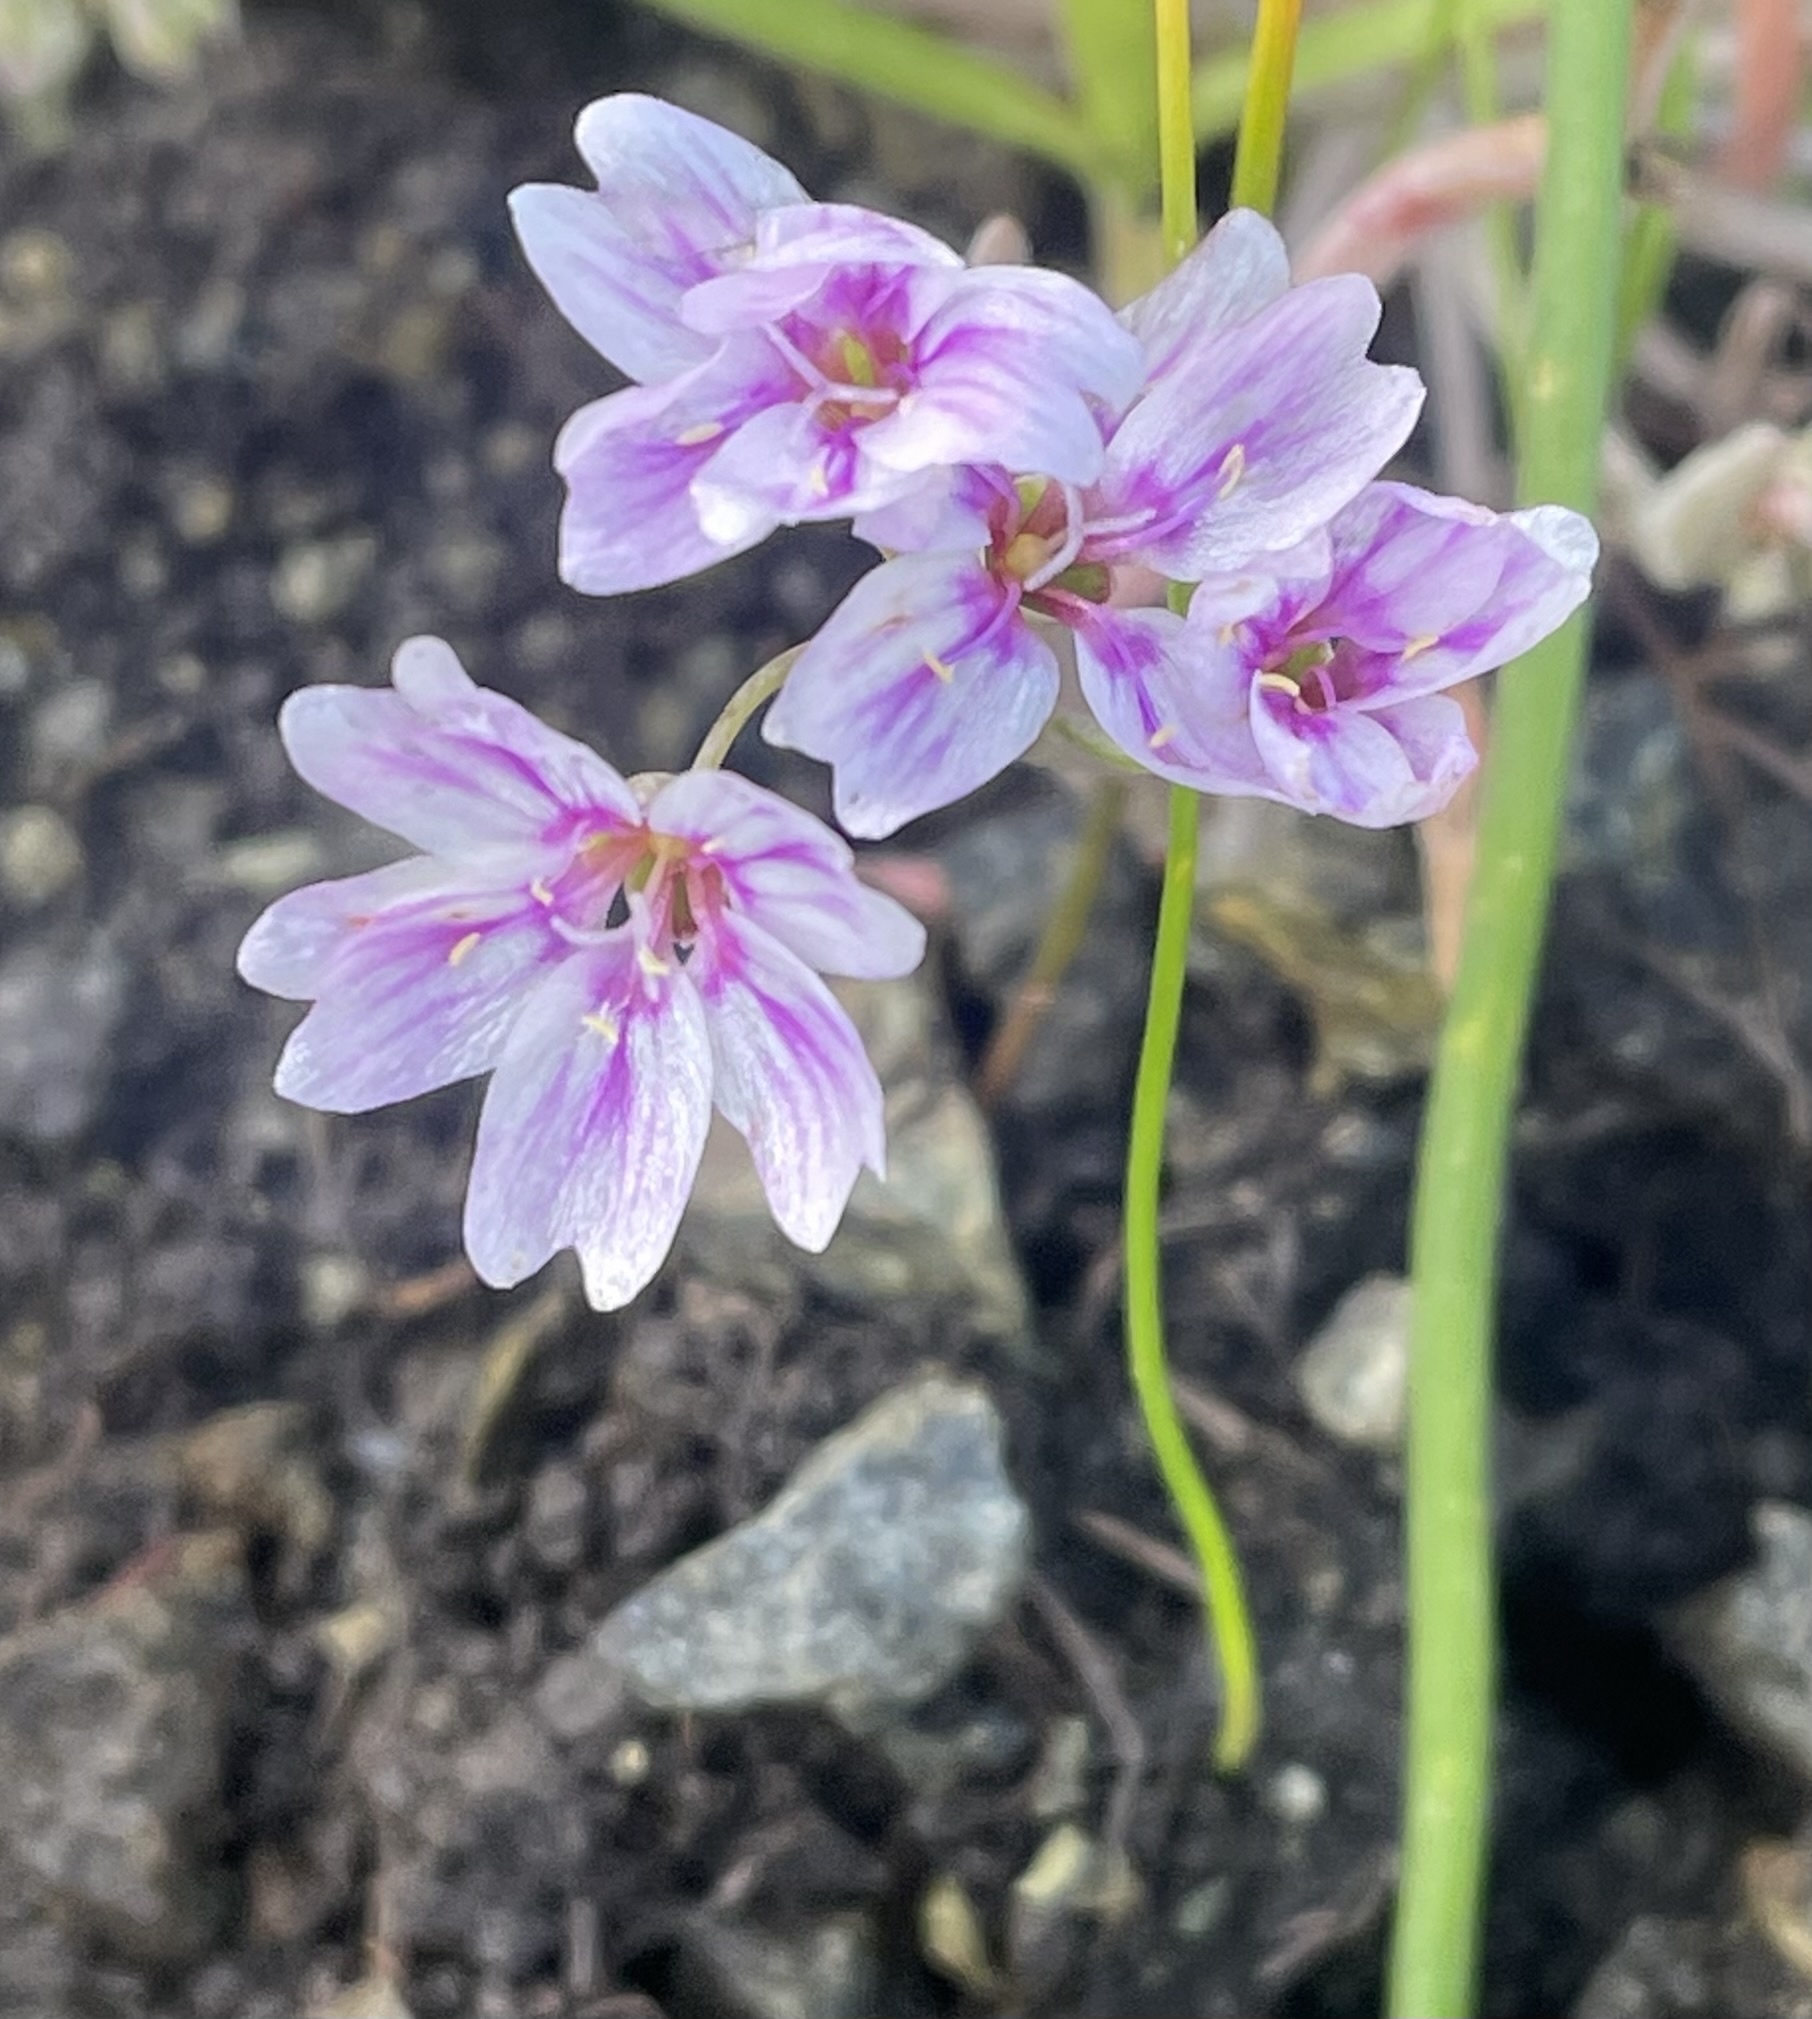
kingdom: Plantae
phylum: Tracheophyta
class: Magnoliopsida
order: Caryophyllales
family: Montiaceae
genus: Claytonia
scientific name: Claytonia gypsophiloides
